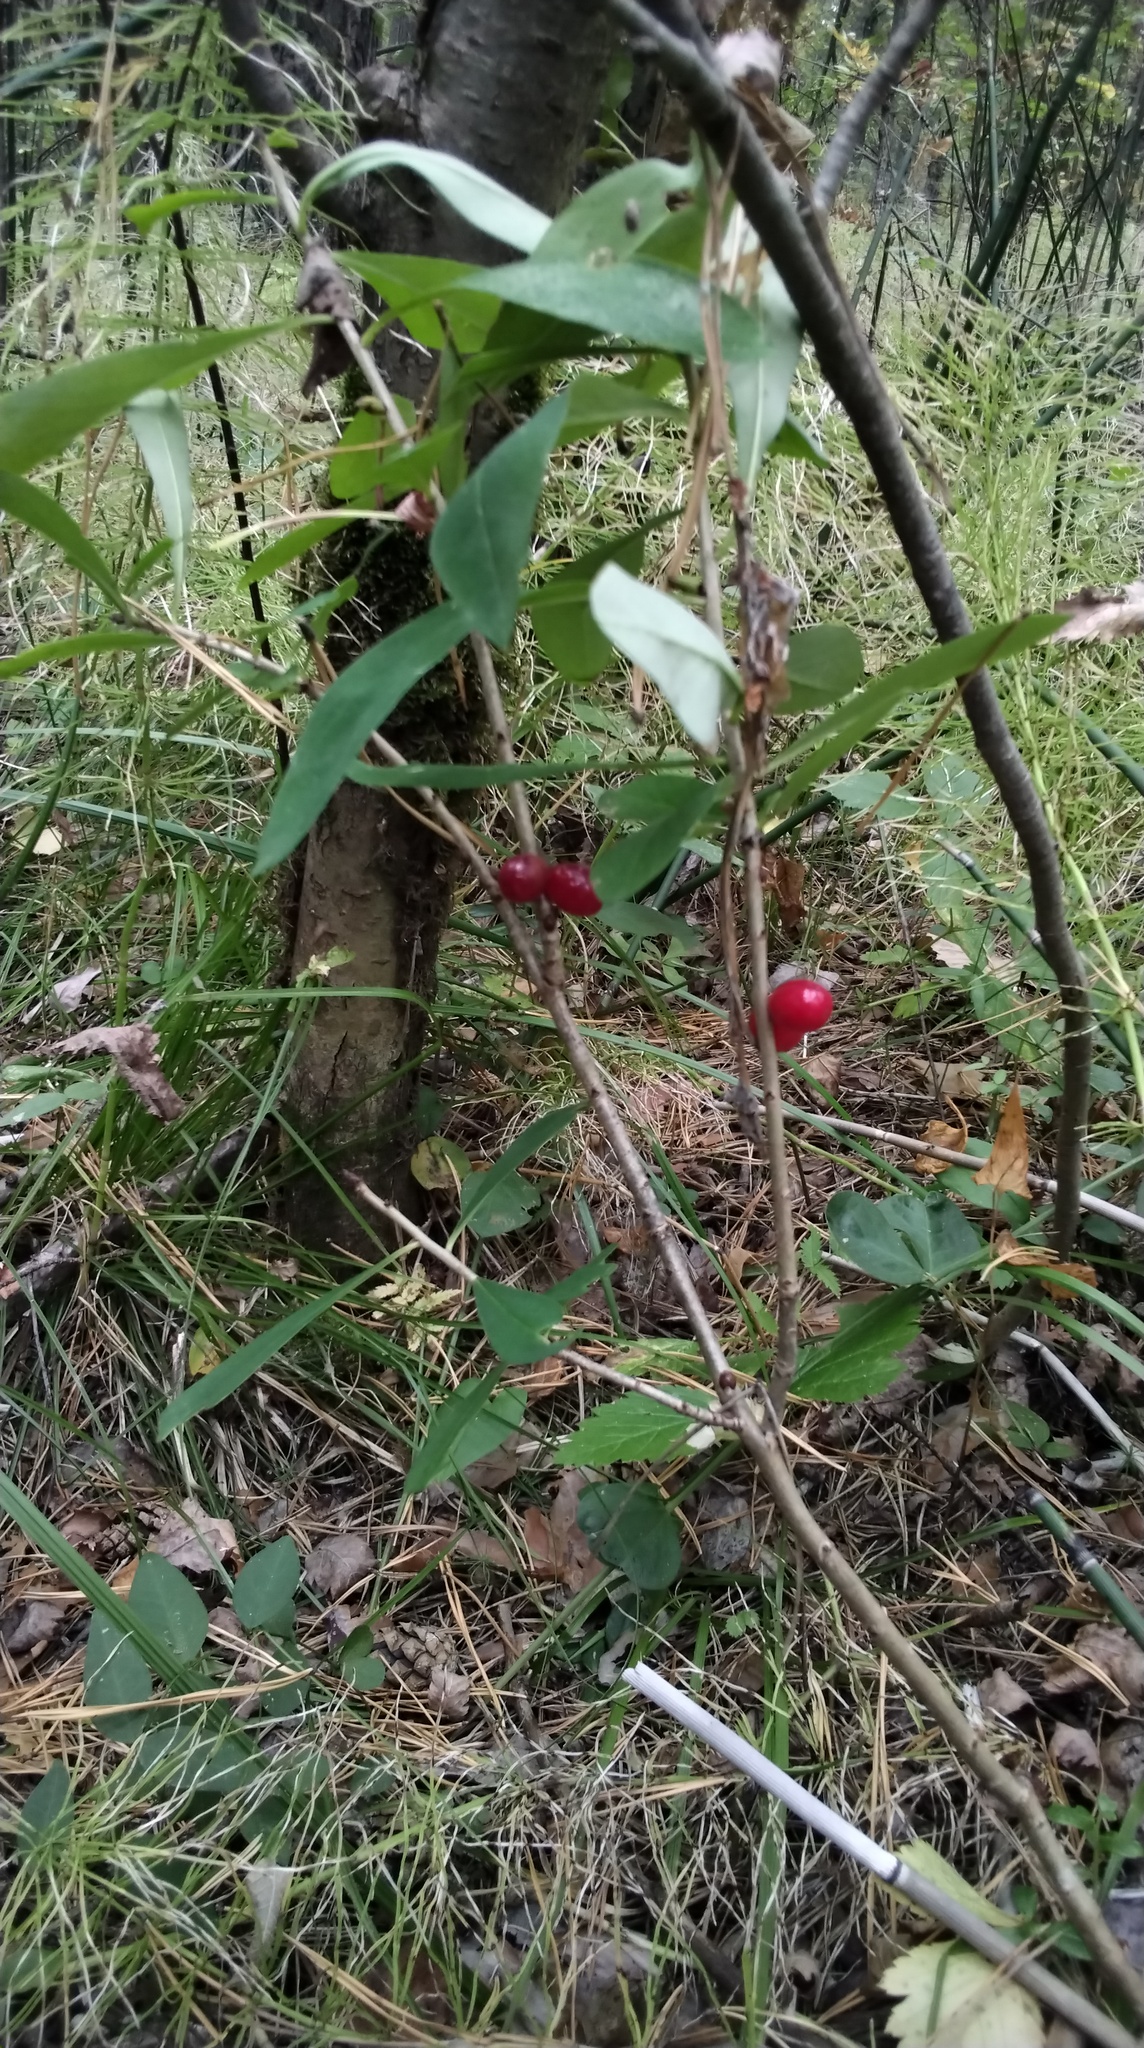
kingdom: Plantae
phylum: Tracheophyta
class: Magnoliopsida
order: Malvales
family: Thymelaeaceae
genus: Daphne
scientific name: Daphne mezereum
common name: Mezereon
